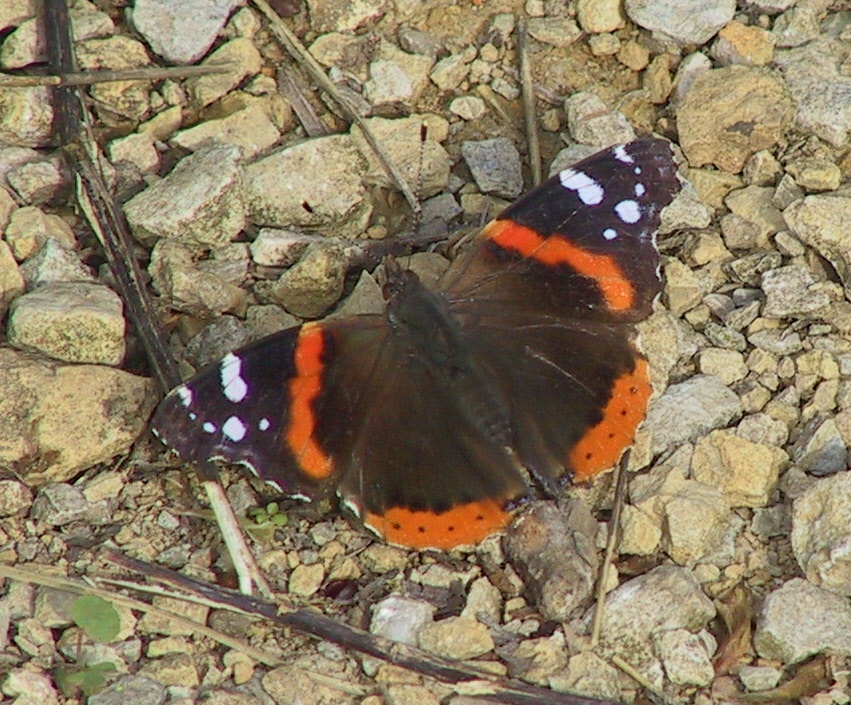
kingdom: Animalia
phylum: Arthropoda
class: Insecta
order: Lepidoptera
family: Nymphalidae
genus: Vanessa
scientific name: Vanessa atalanta
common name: Red admiral
